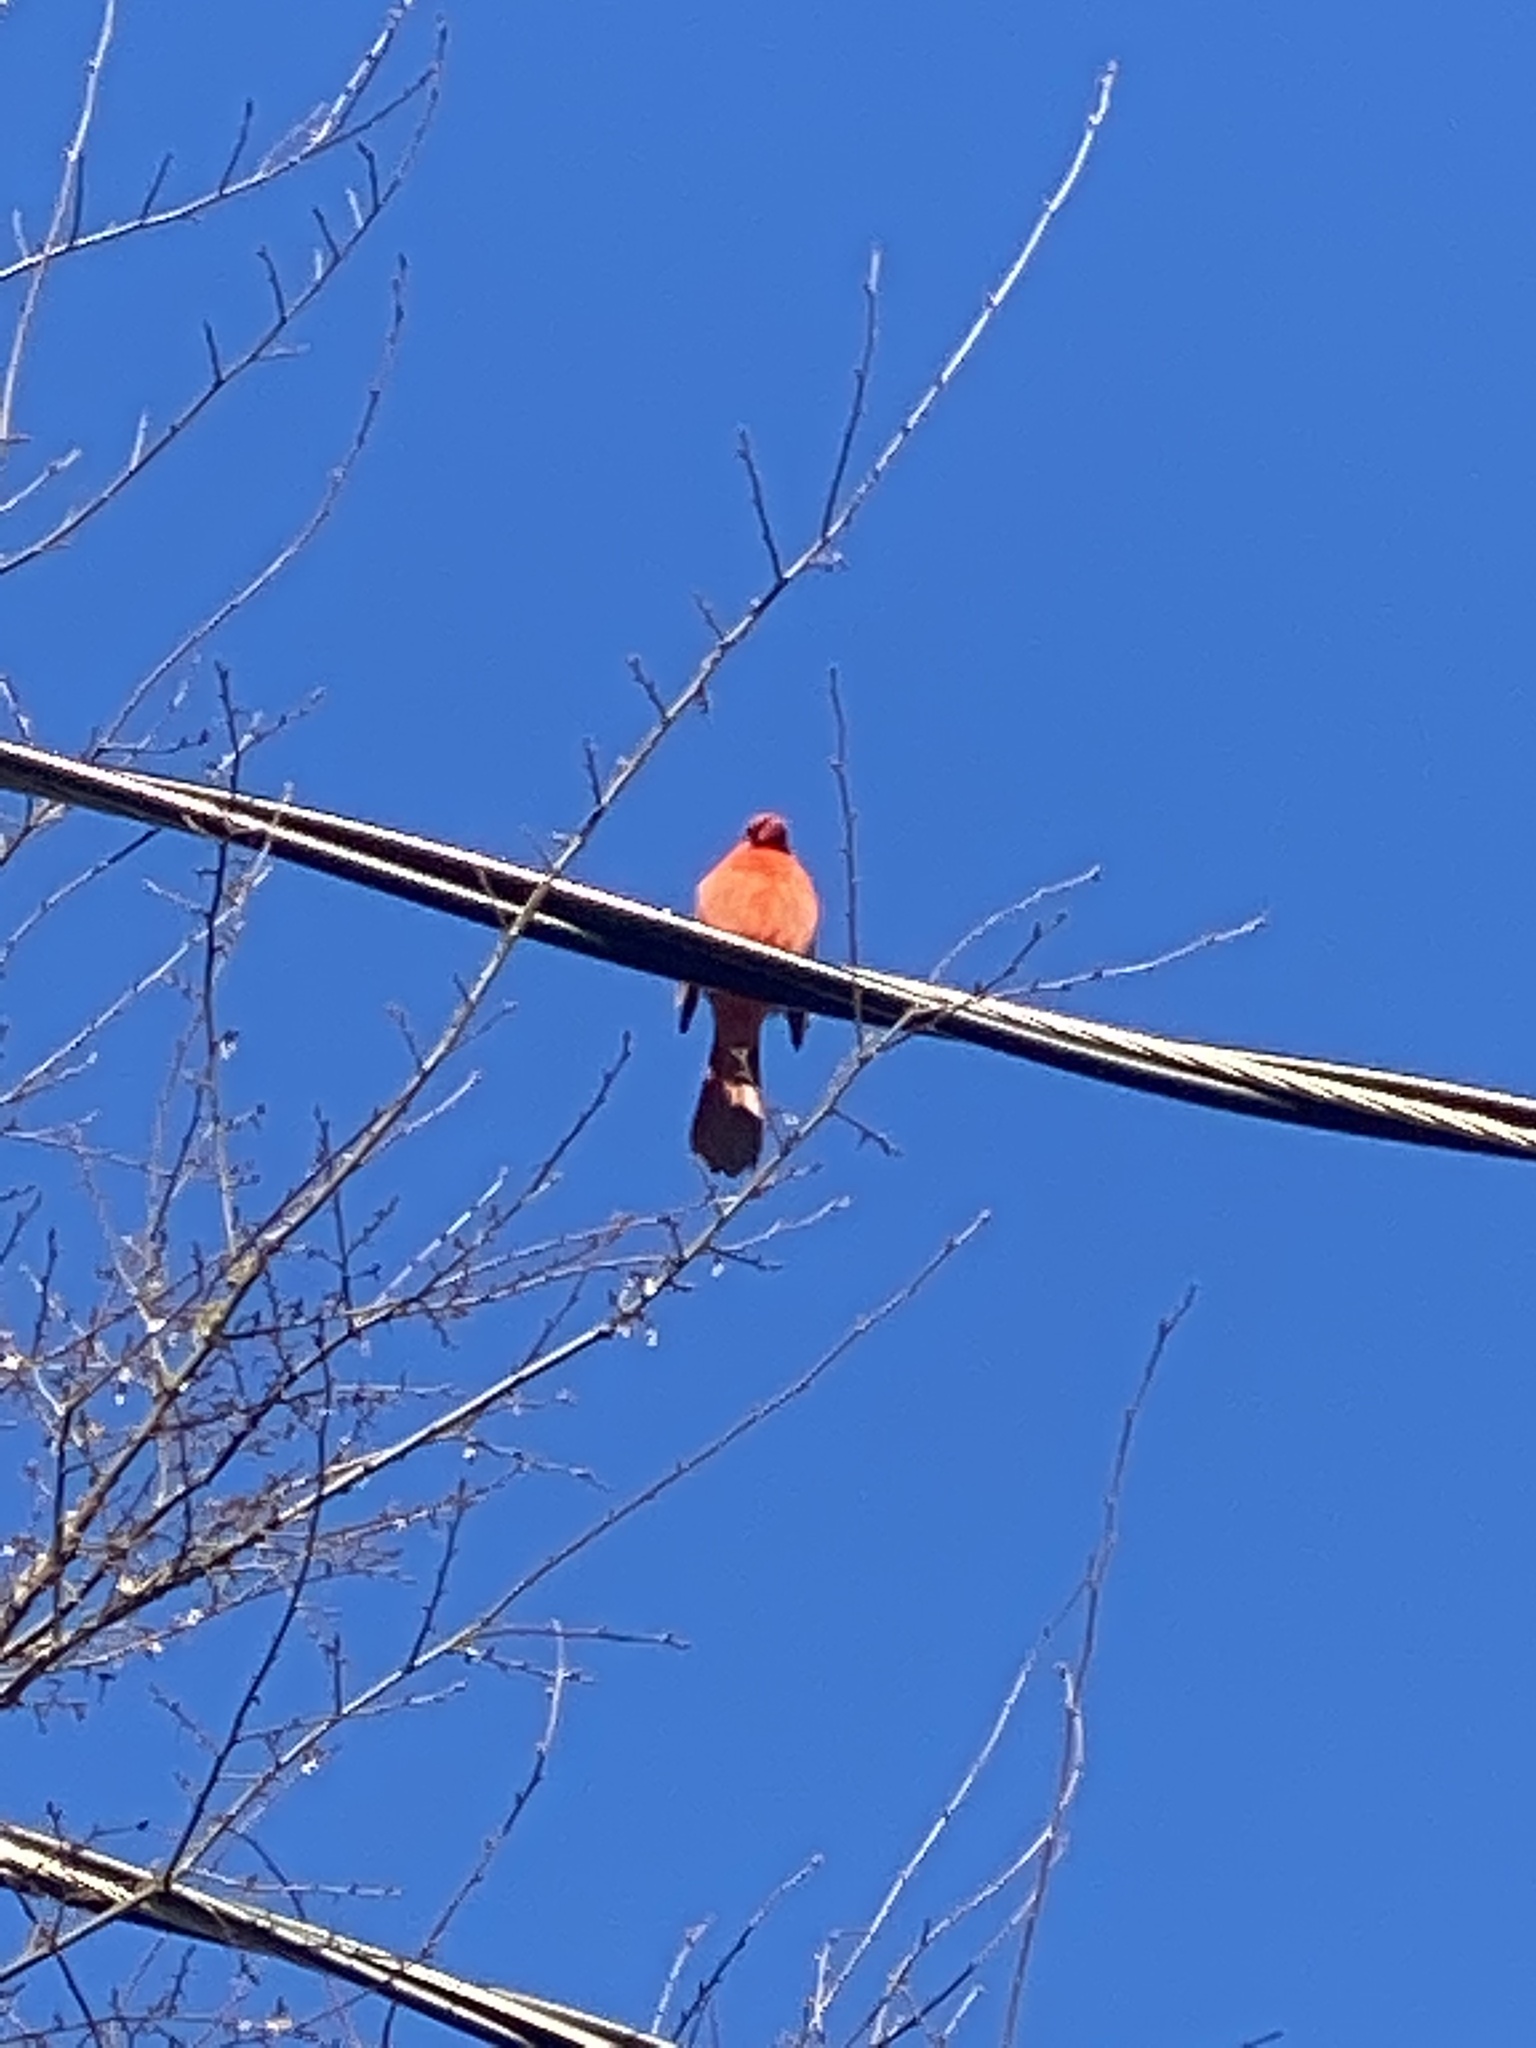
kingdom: Animalia
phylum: Chordata
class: Aves
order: Passeriformes
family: Cardinalidae
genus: Cardinalis
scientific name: Cardinalis cardinalis
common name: Northern cardinal
